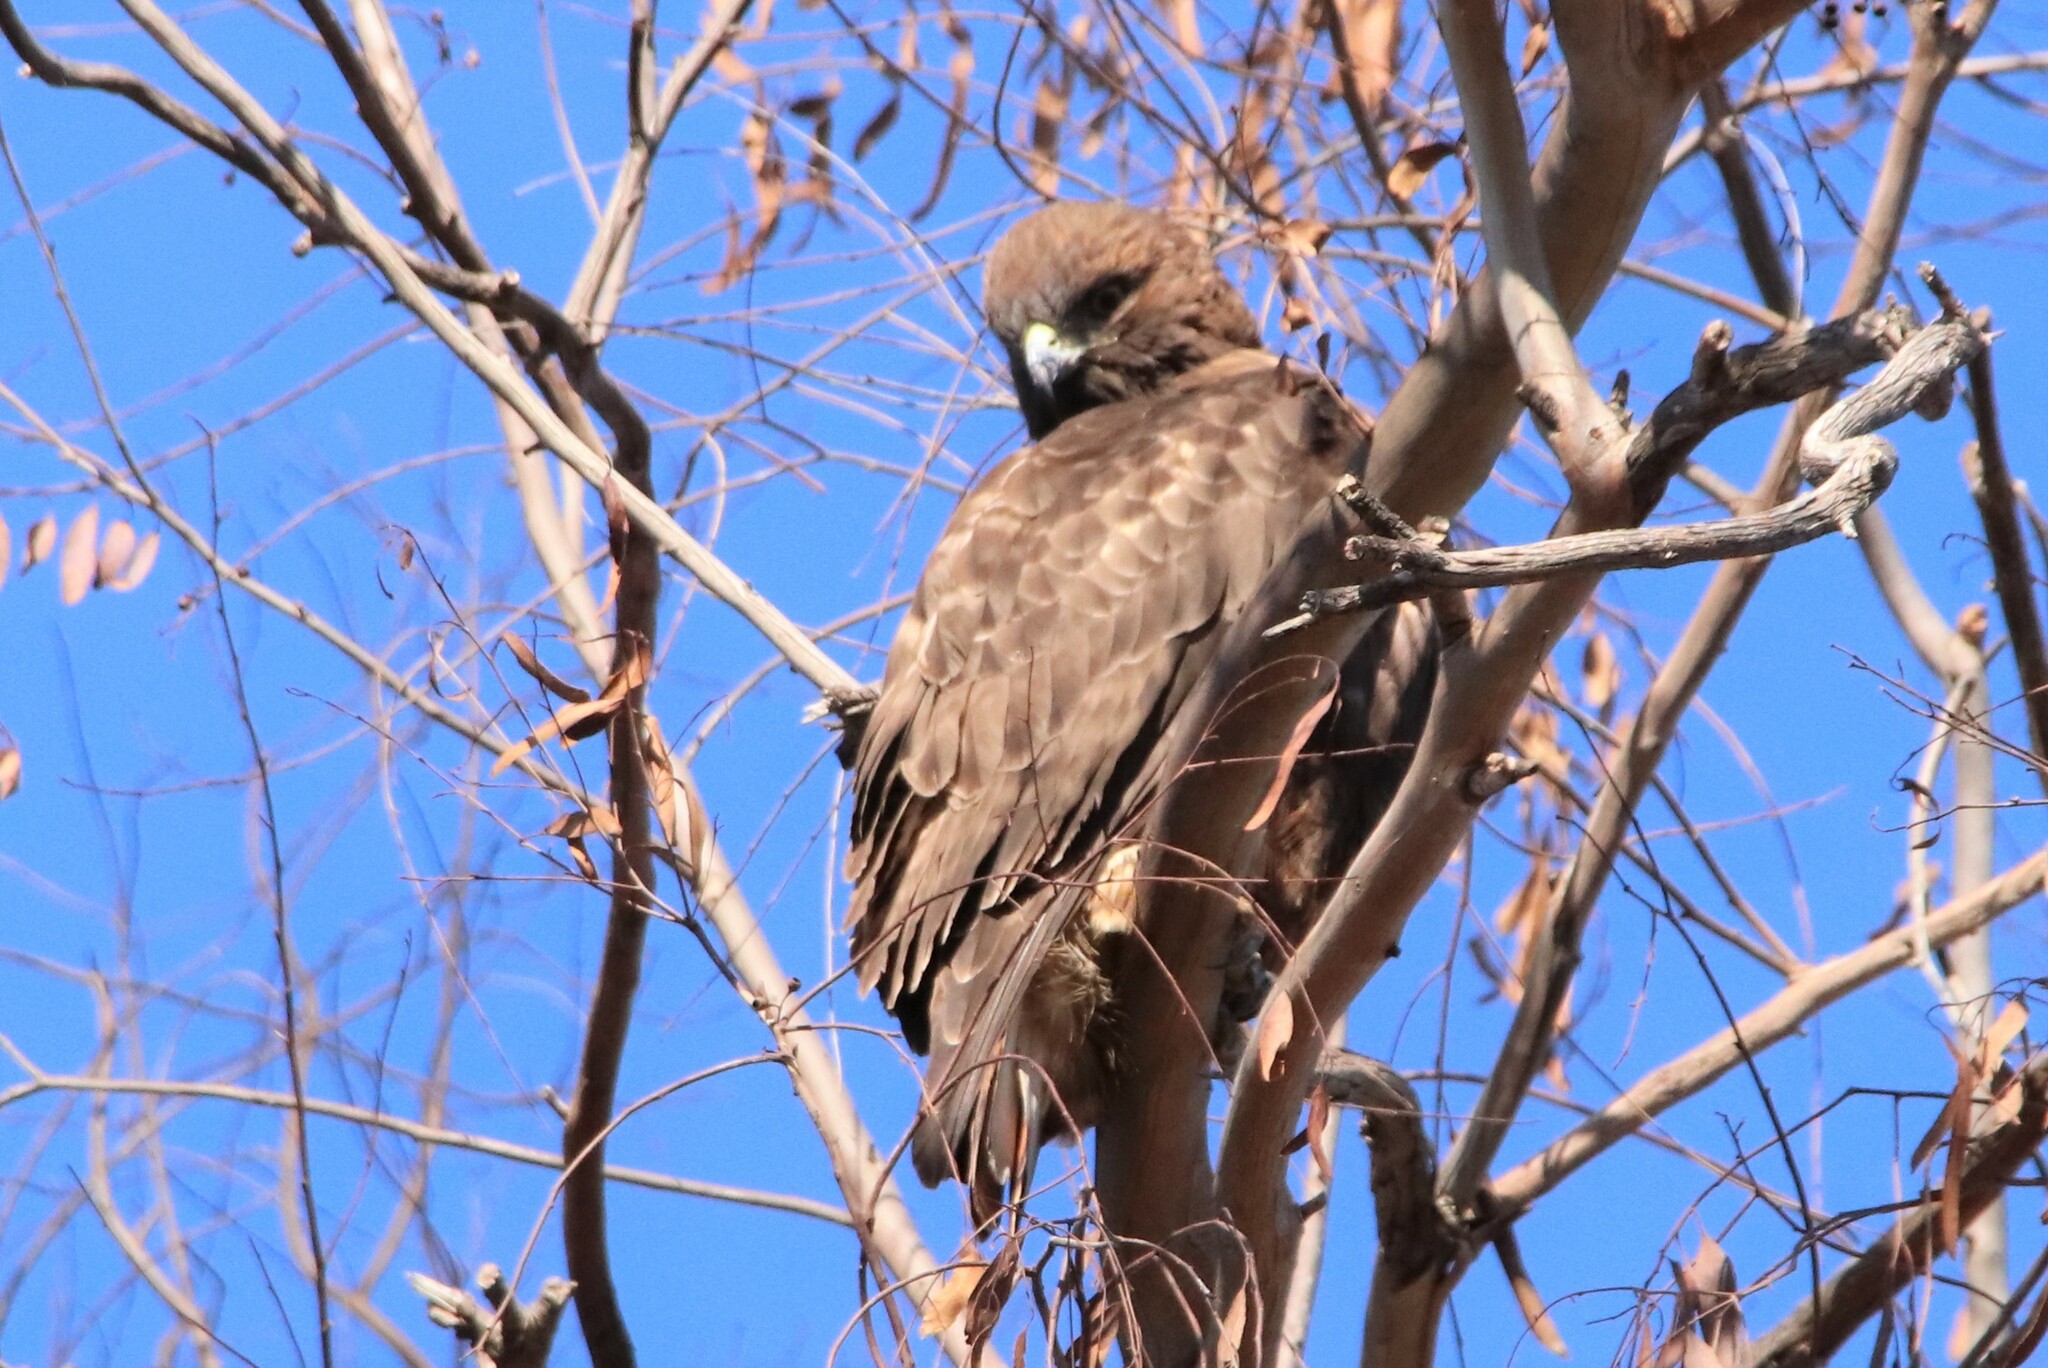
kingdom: Animalia
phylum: Chordata
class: Aves
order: Accipitriformes
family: Accipitridae
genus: Buteo
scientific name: Buteo jamaicensis
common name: Red-tailed hawk
